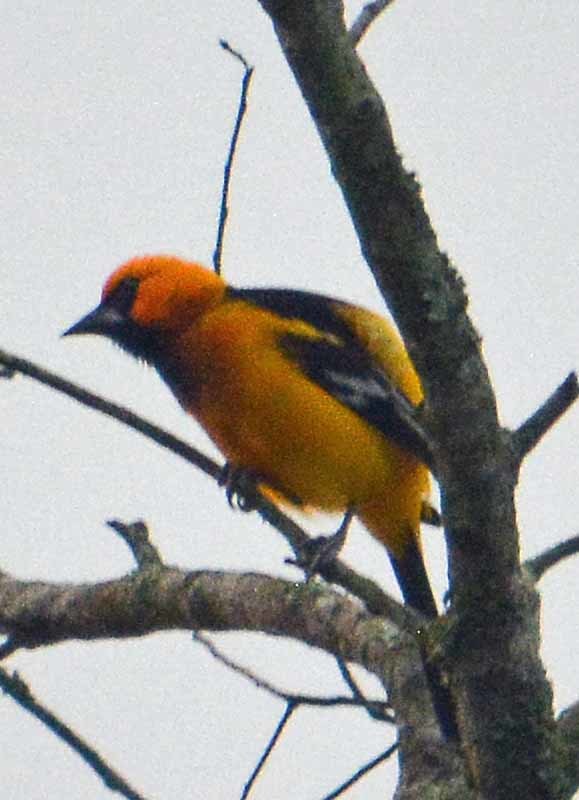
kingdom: Animalia
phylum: Chordata
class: Aves
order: Passeriformes
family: Icteridae
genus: Icterus
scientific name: Icterus gularis
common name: Altamira oriole
